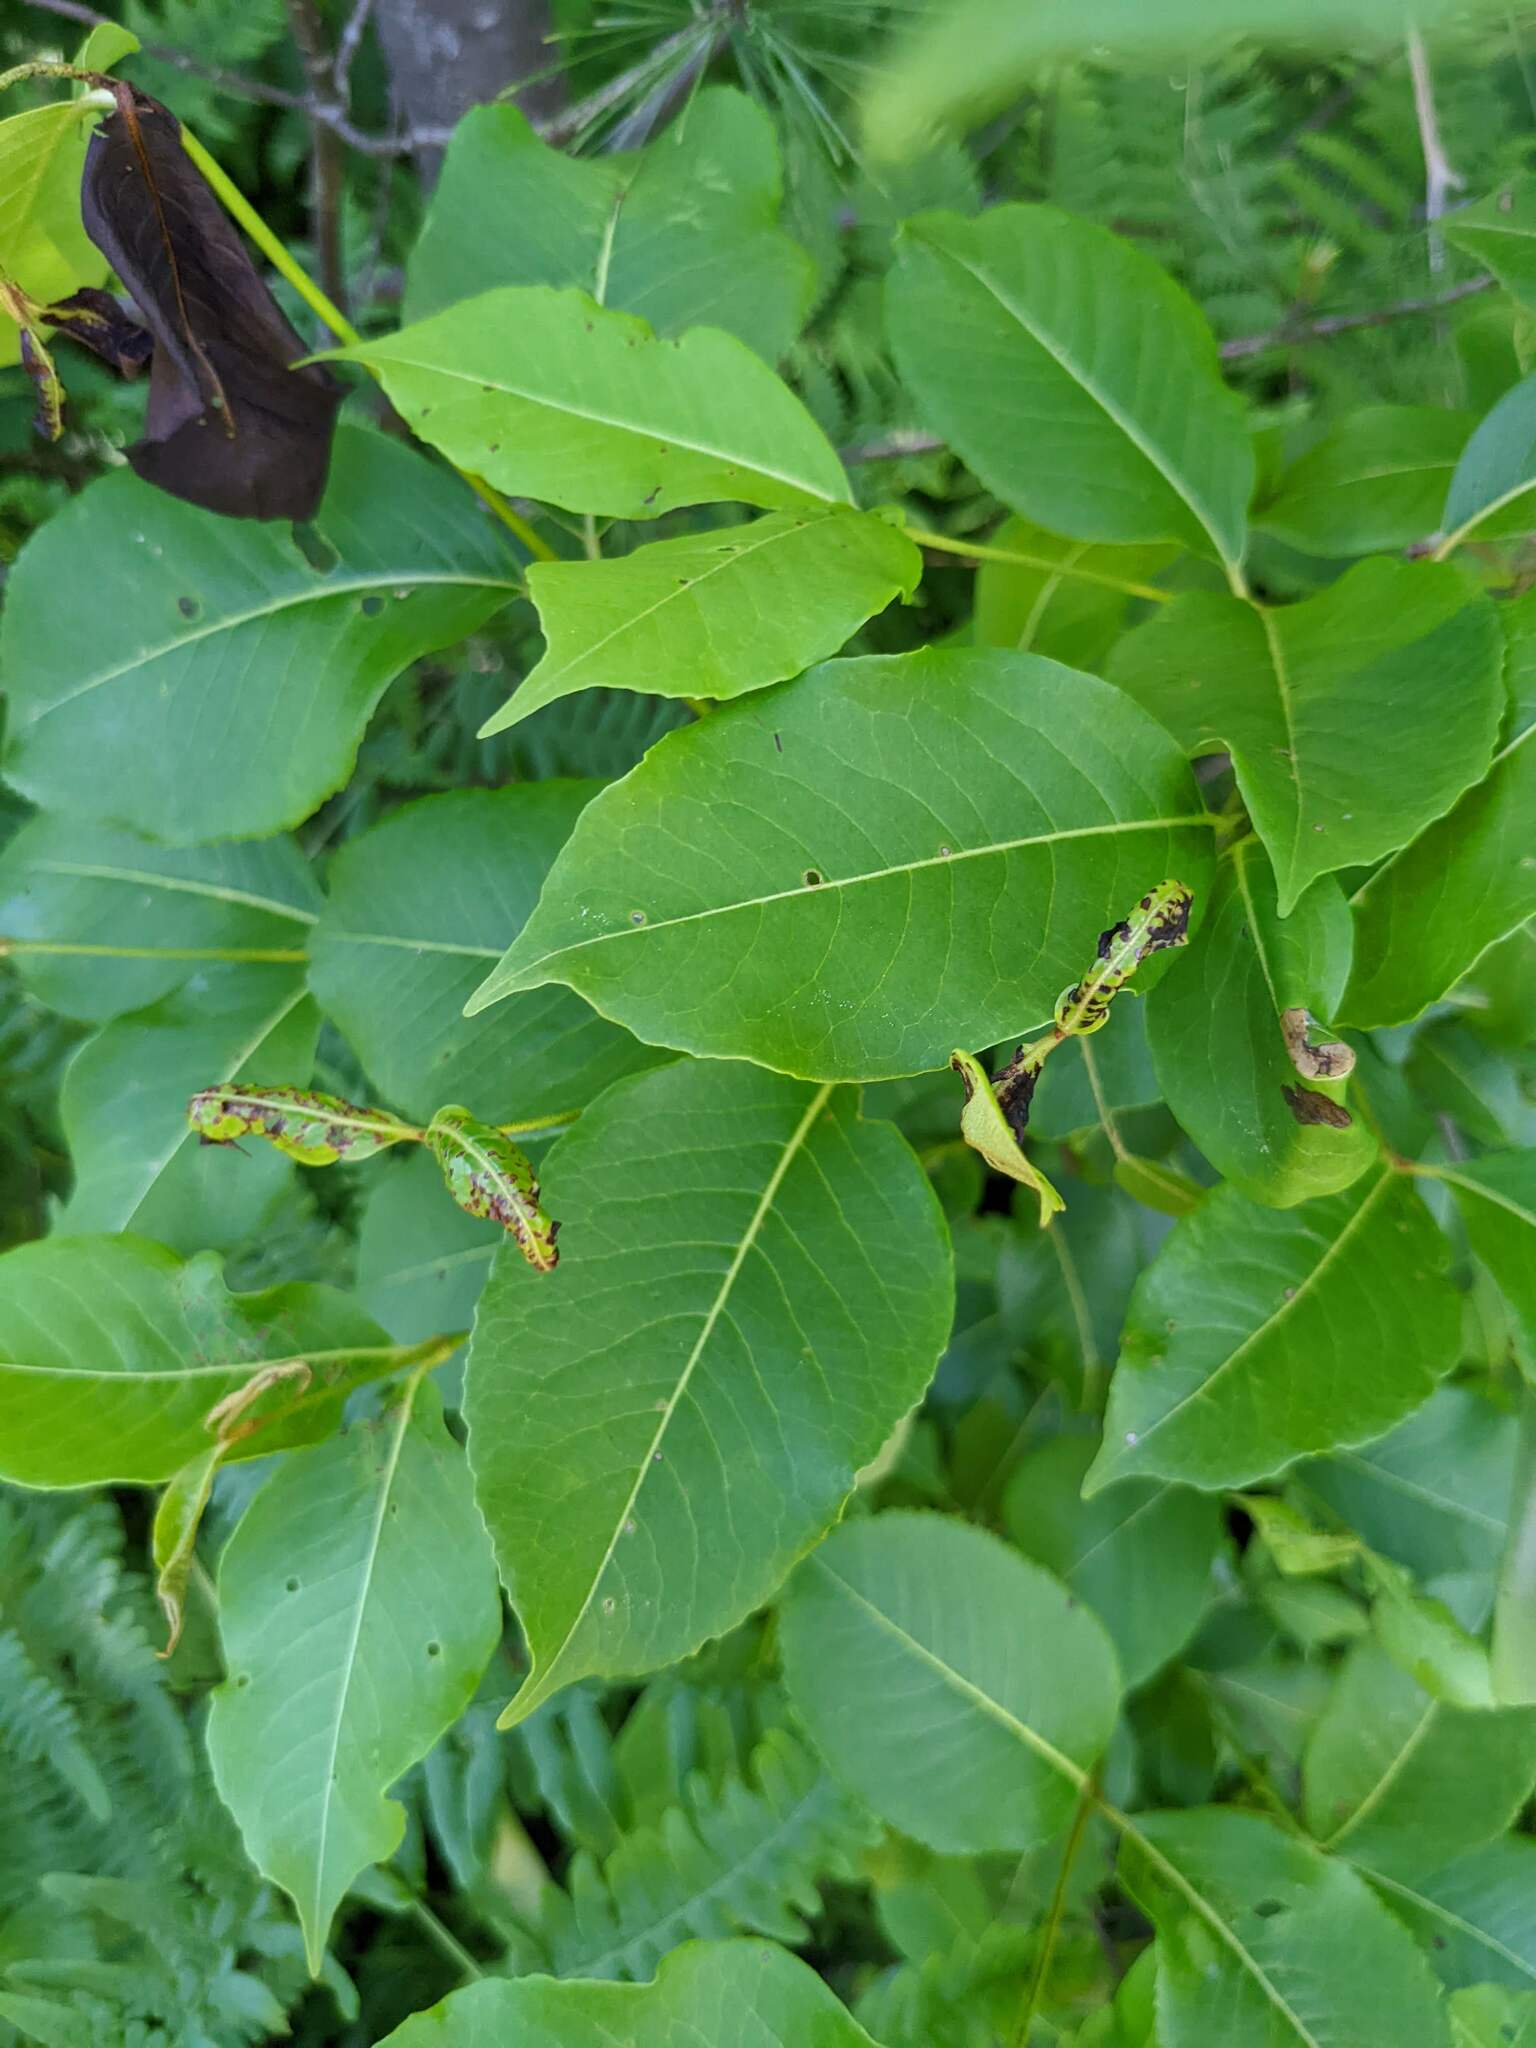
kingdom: Plantae
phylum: Tracheophyta
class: Magnoliopsida
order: Dipsacales
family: Viburnaceae
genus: Viburnum
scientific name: Viburnum cassinoides
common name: Swamp haw
